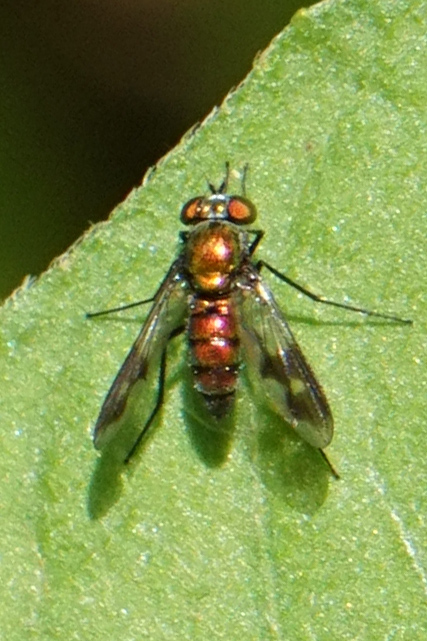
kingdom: Animalia
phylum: Arthropoda
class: Insecta
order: Diptera
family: Dolichopodidae
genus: Condylostylus
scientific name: Condylostylus patibulatus
